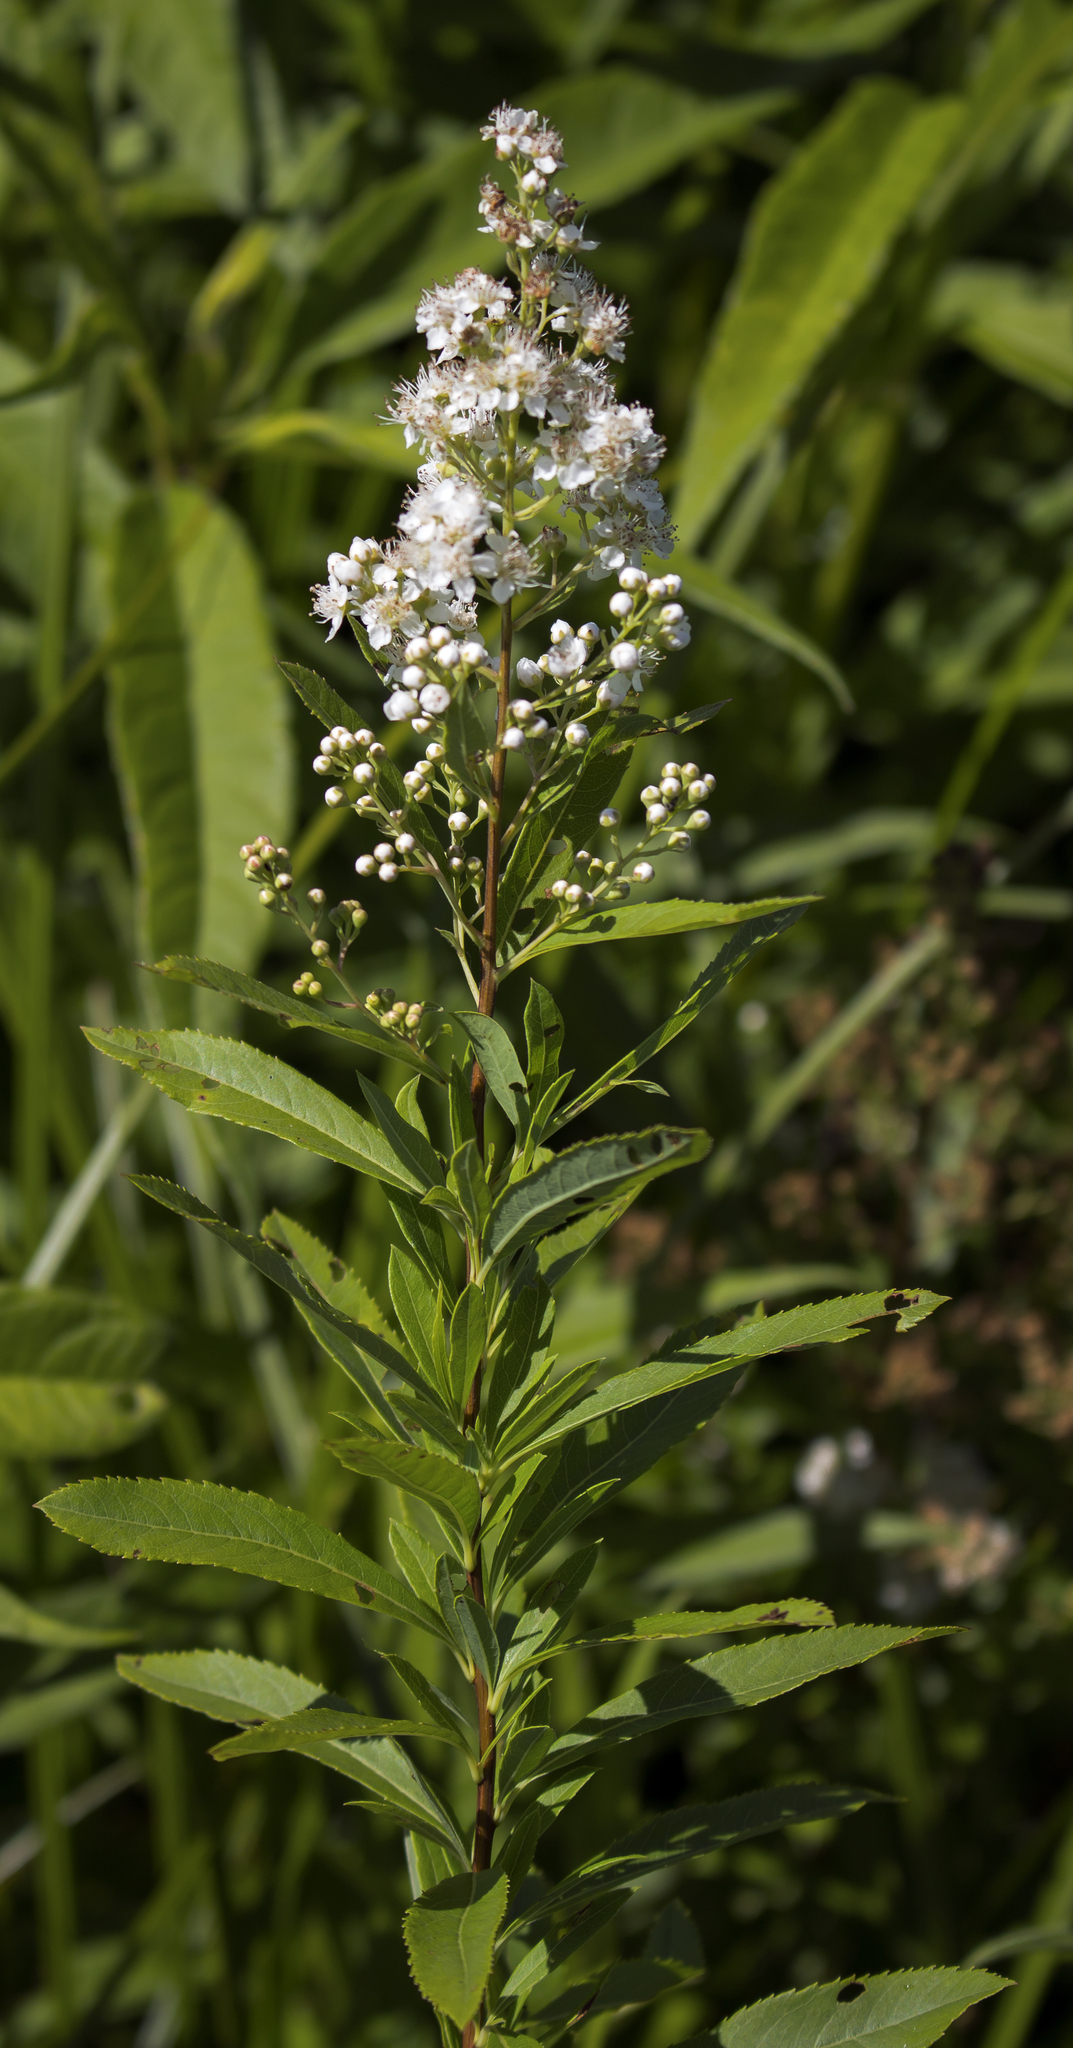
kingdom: Plantae
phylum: Tracheophyta
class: Magnoliopsida
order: Rosales
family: Rosaceae
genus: Spiraea
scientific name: Spiraea alba
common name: Pale bridewort
